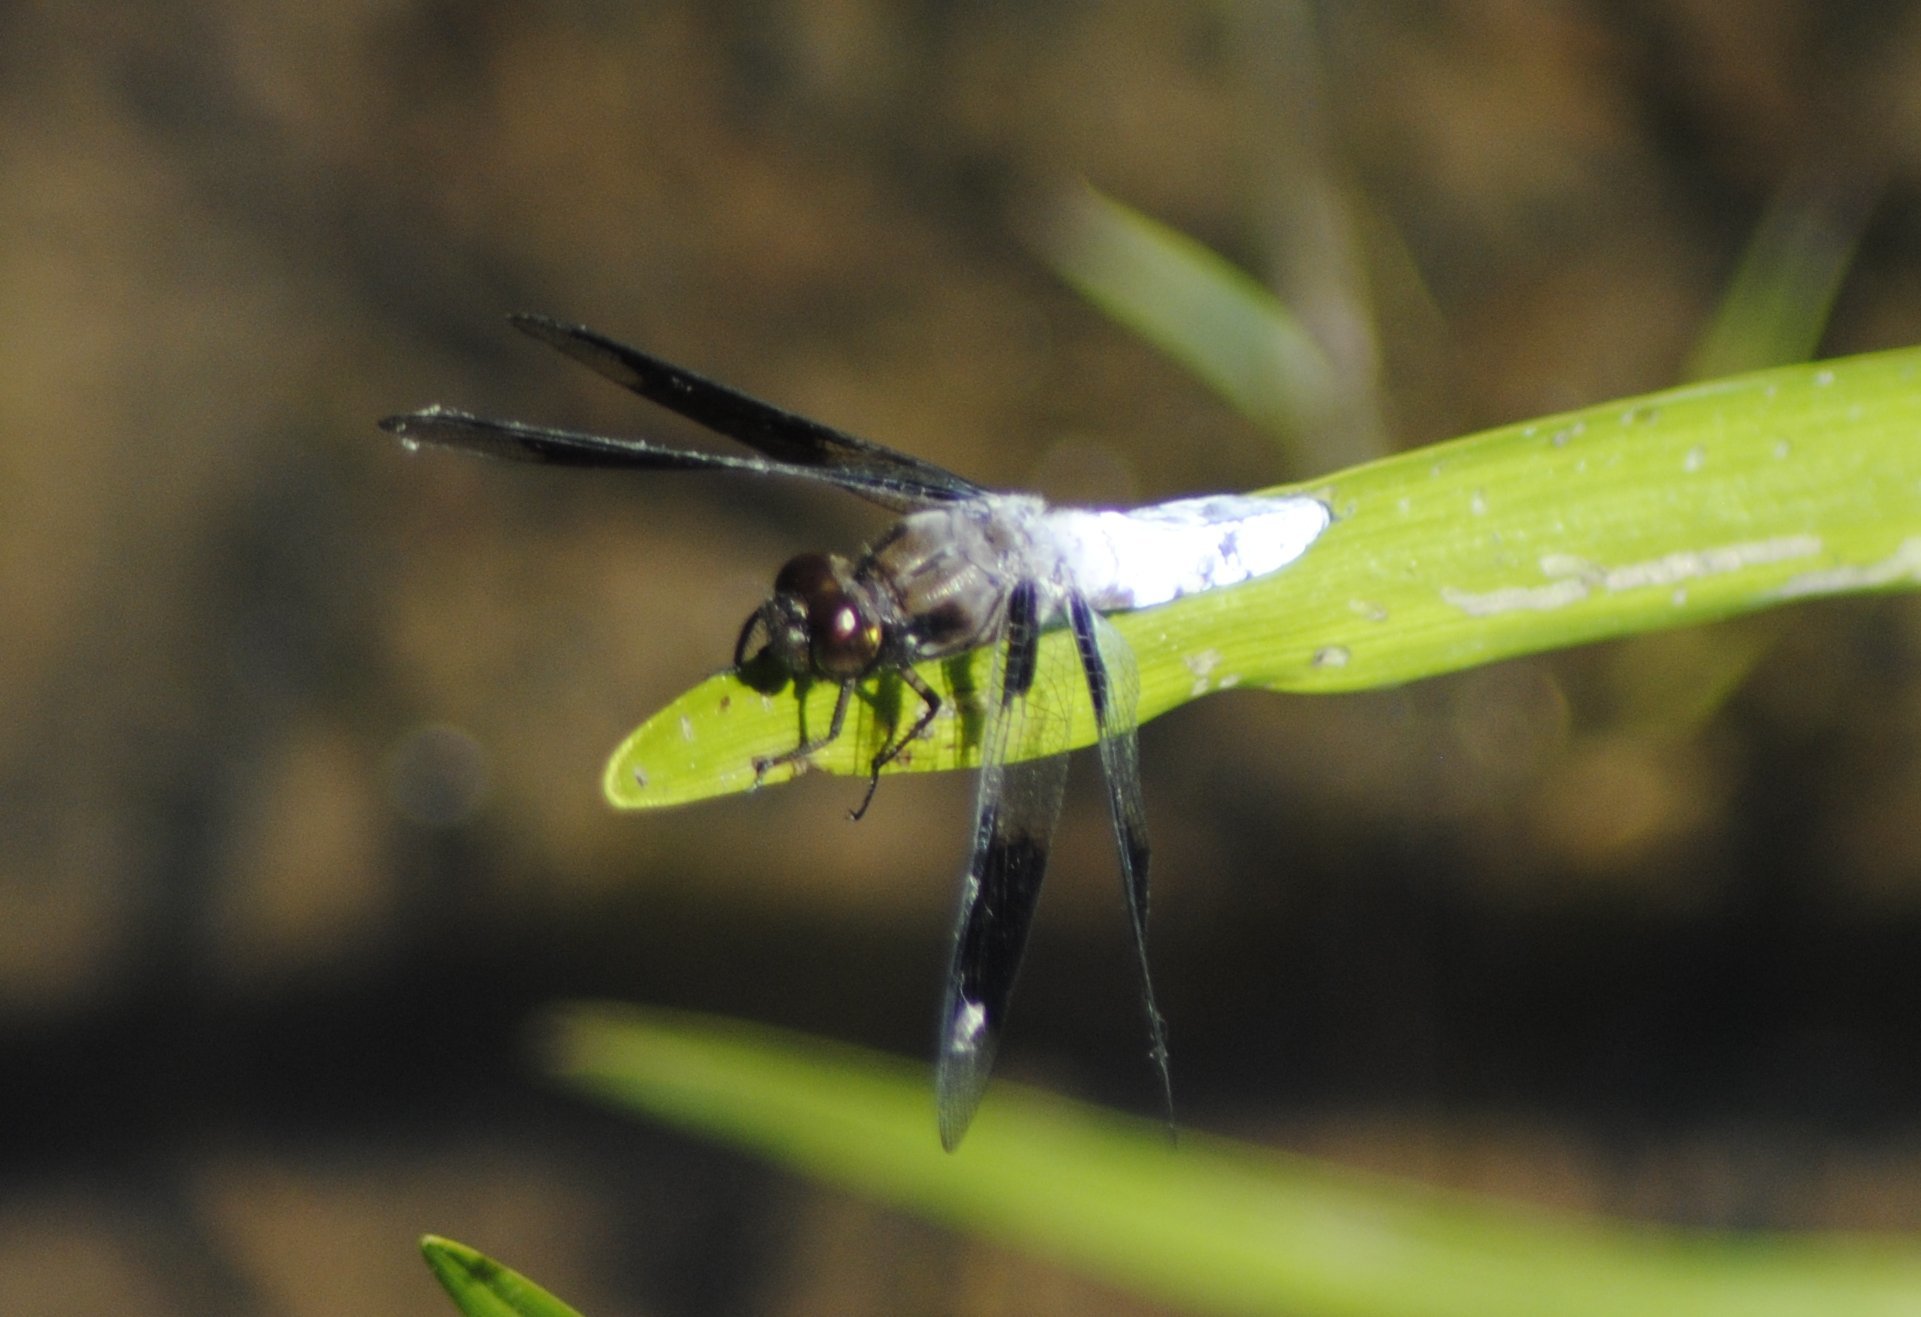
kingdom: Animalia
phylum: Arthropoda
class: Insecta
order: Odonata
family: Libellulidae
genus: Plathemis
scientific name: Plathemis lydia
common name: Common whitetail
